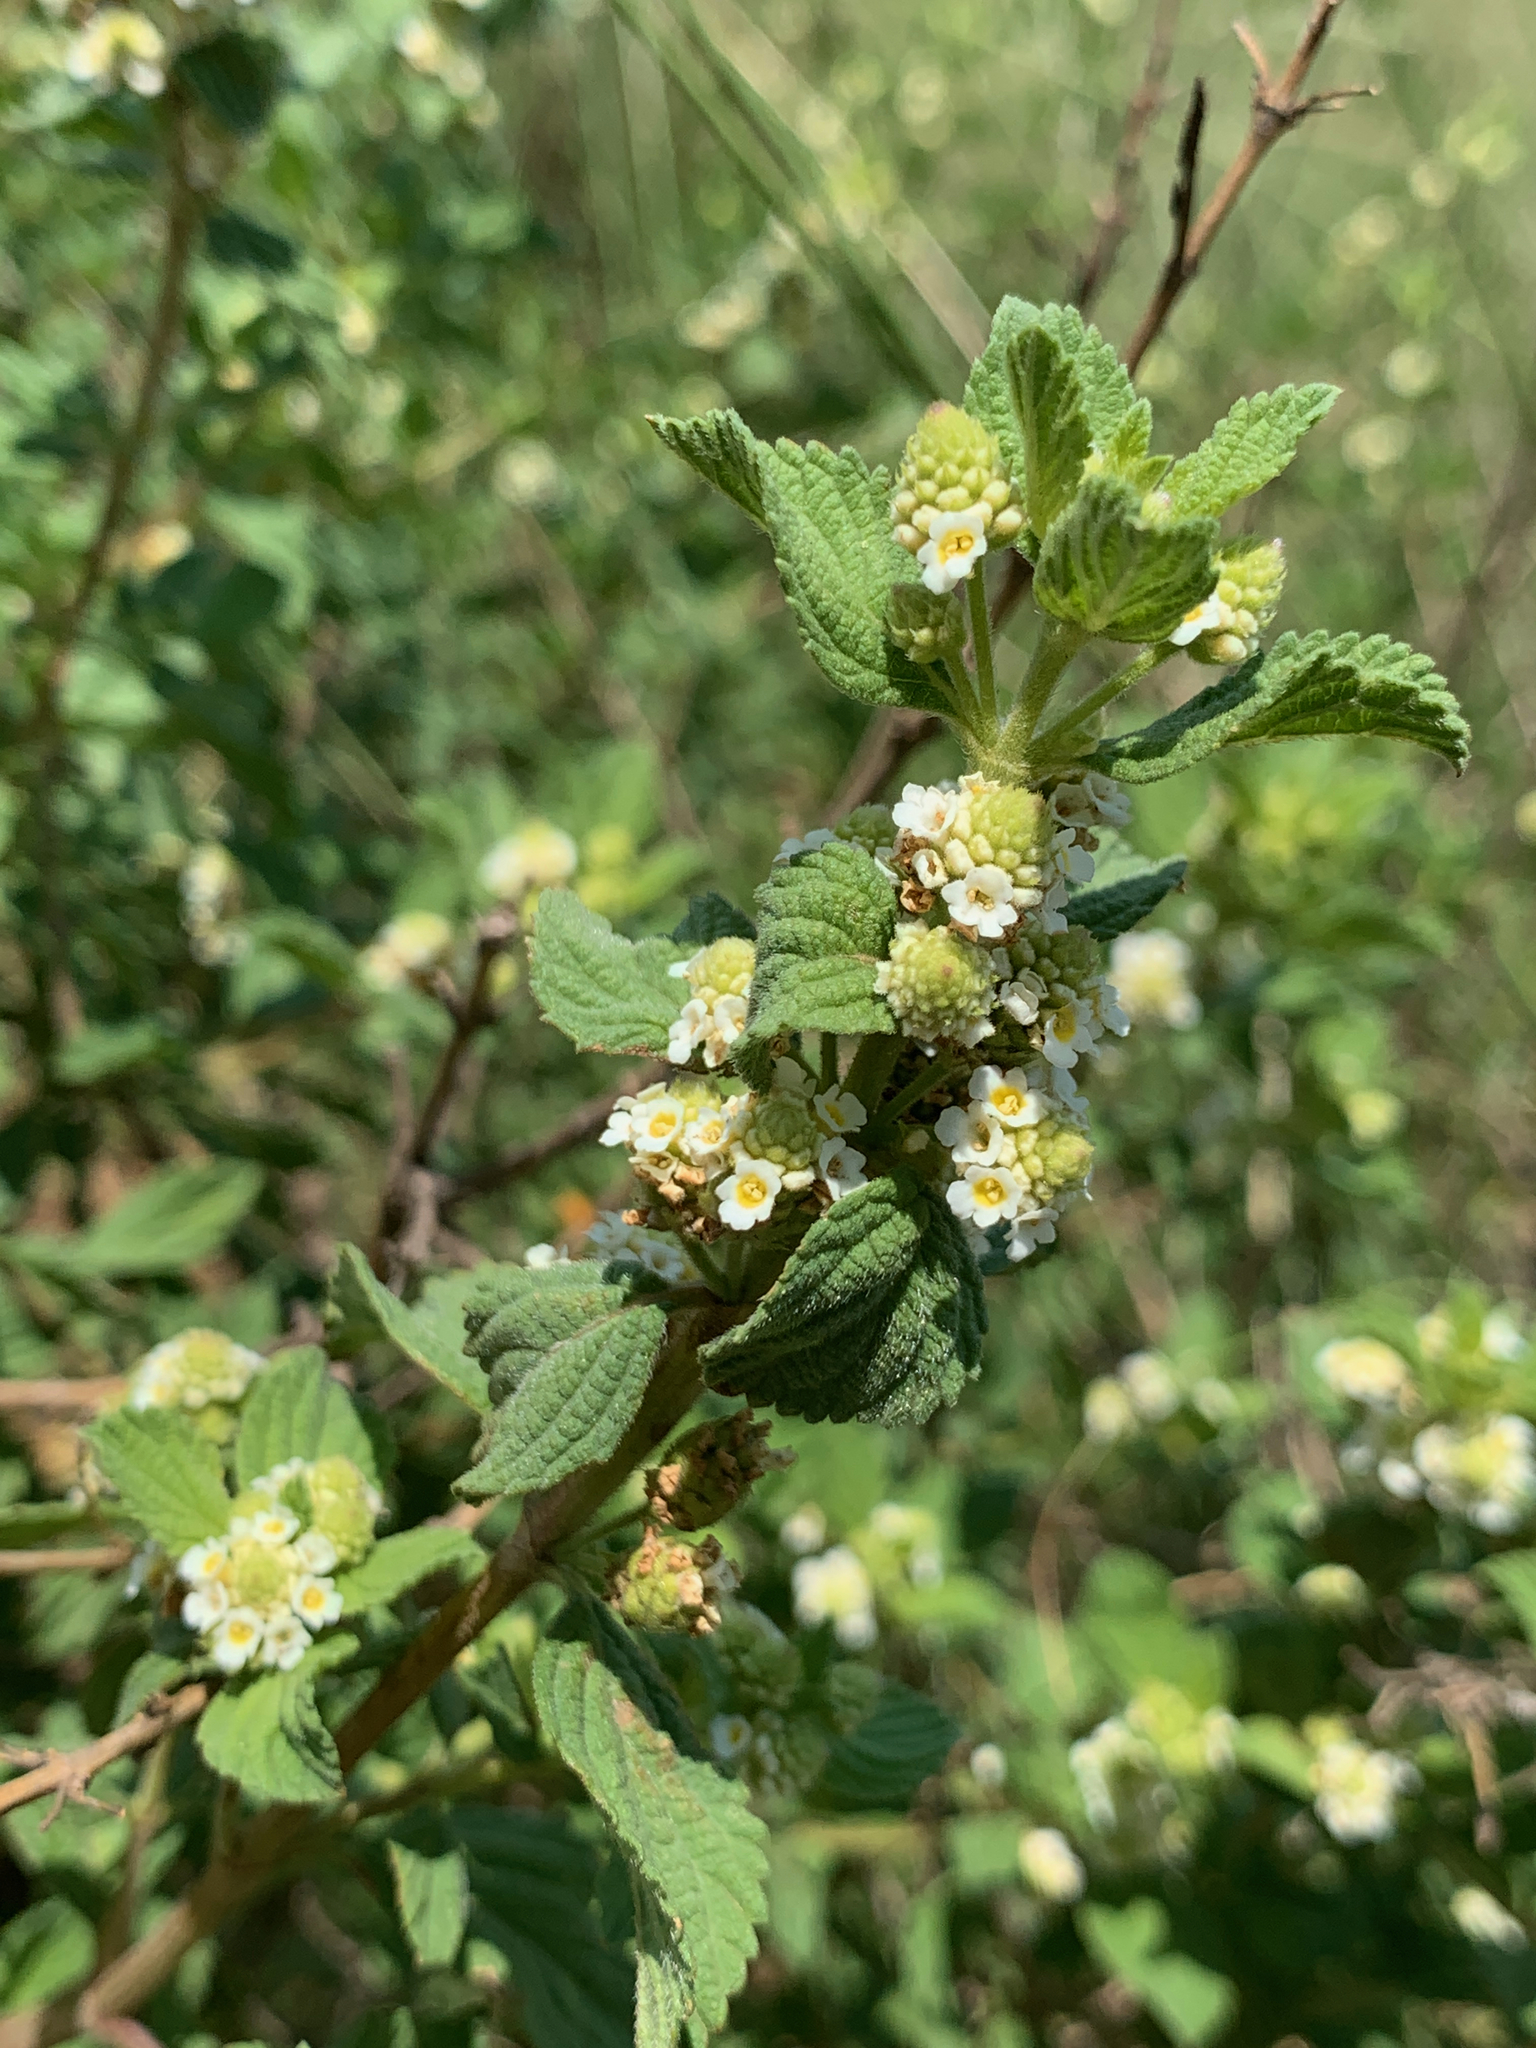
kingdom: Plantae
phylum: Tracheophyta
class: Magnoliopsida
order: Lamiales
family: Verbenaceae
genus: Lippia
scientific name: Lippia javanica
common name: Lemonbush
